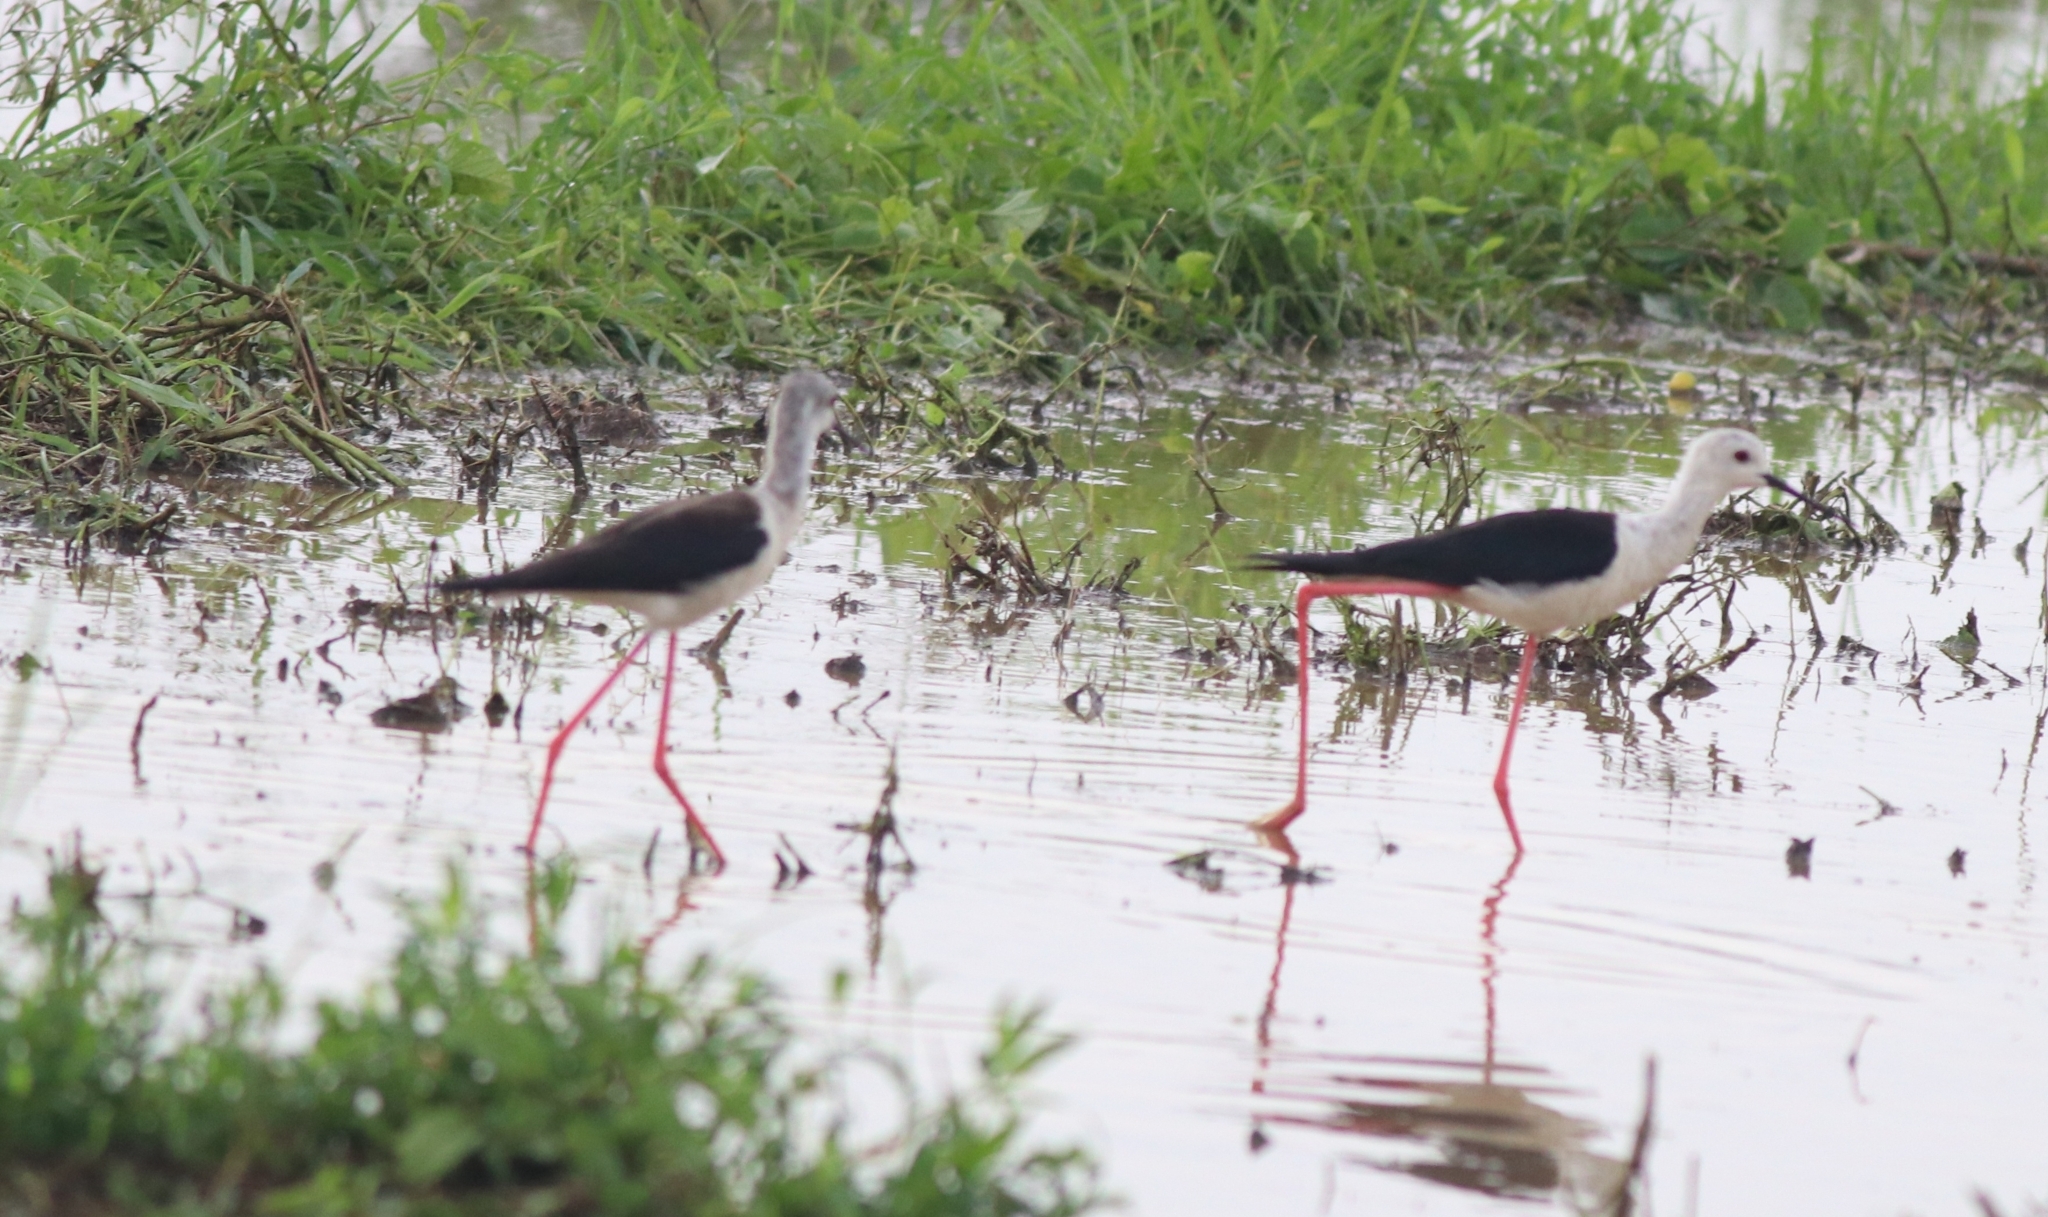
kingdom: Animalia
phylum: Chordata
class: Aves
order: Charadriiformes
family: Recurvirostridae
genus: Himantopus
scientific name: Himantopus himantopus
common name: Black-winged stilt
